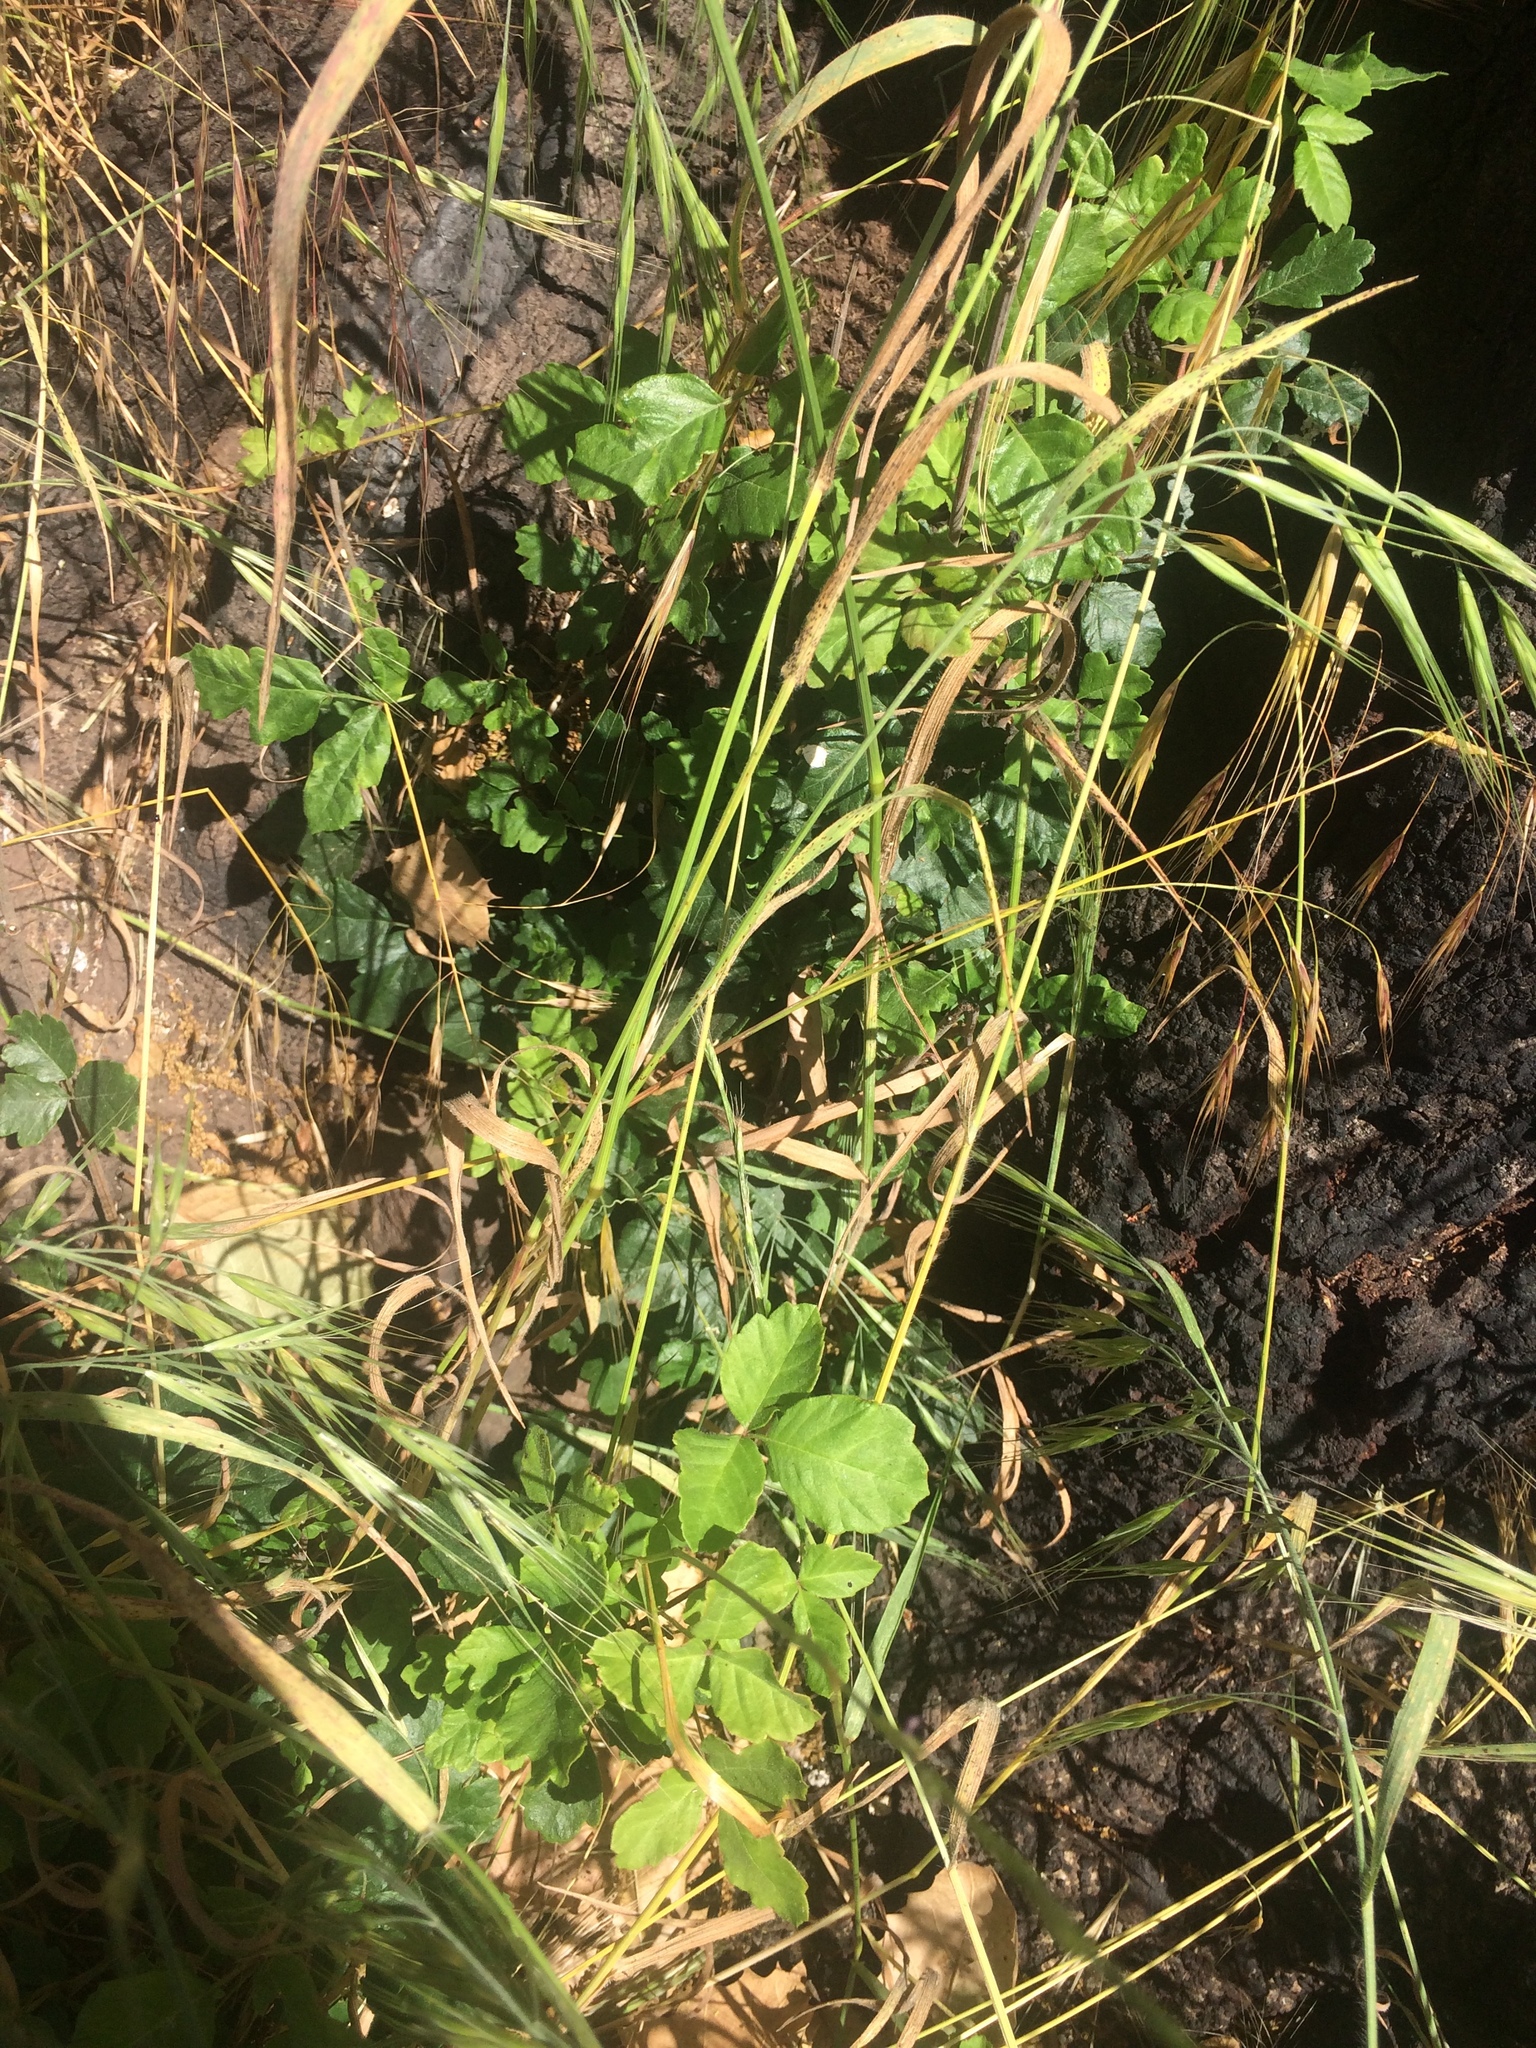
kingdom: Plantae
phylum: Tracheophyta
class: Magnoliopsida
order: Sapindales
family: Anacardiaceae
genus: Toxicodendron
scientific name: Toxicodendron diversilobum
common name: Pacific poison-oak
